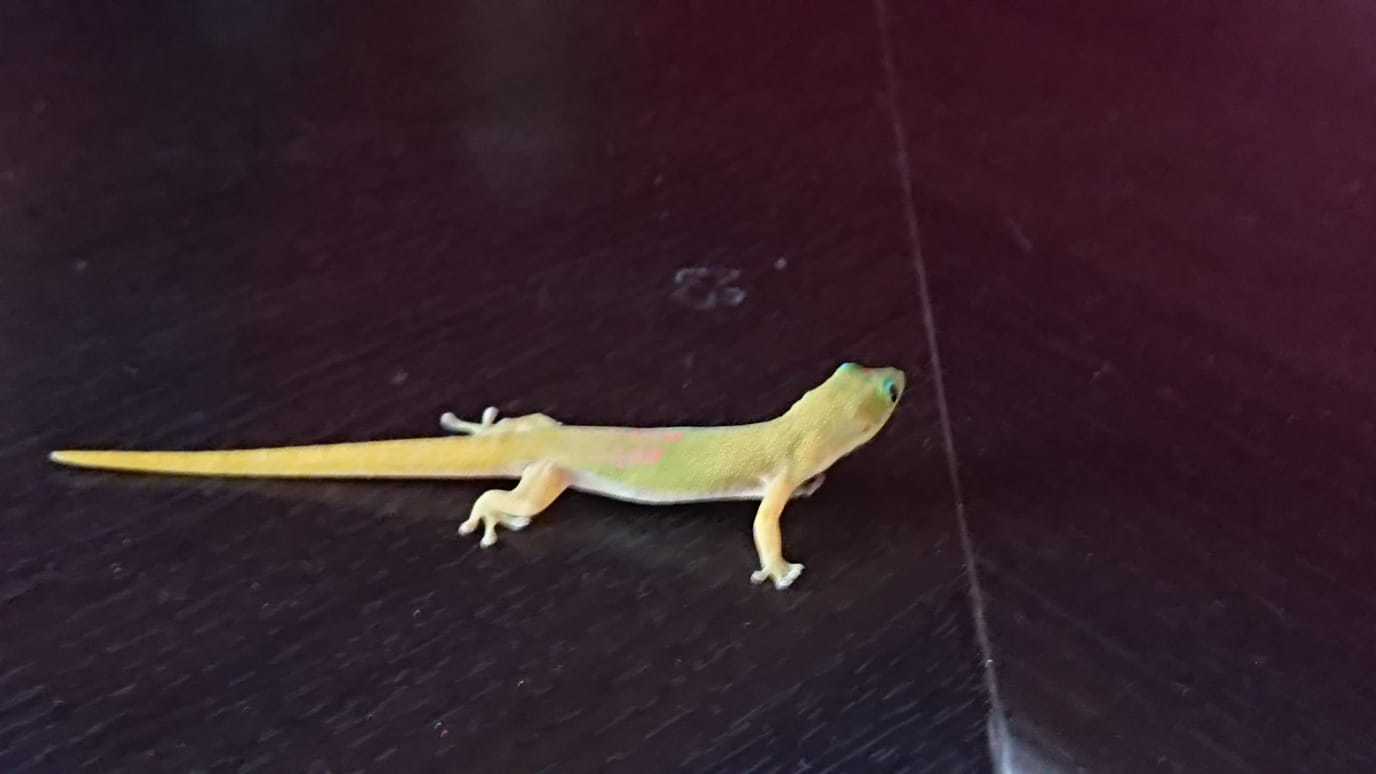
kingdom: Animalia
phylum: Chordata
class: Squamata
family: Gekkonidae
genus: Phelsuma
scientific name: Phelsuma laticauda
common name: Gold dust day gecko
